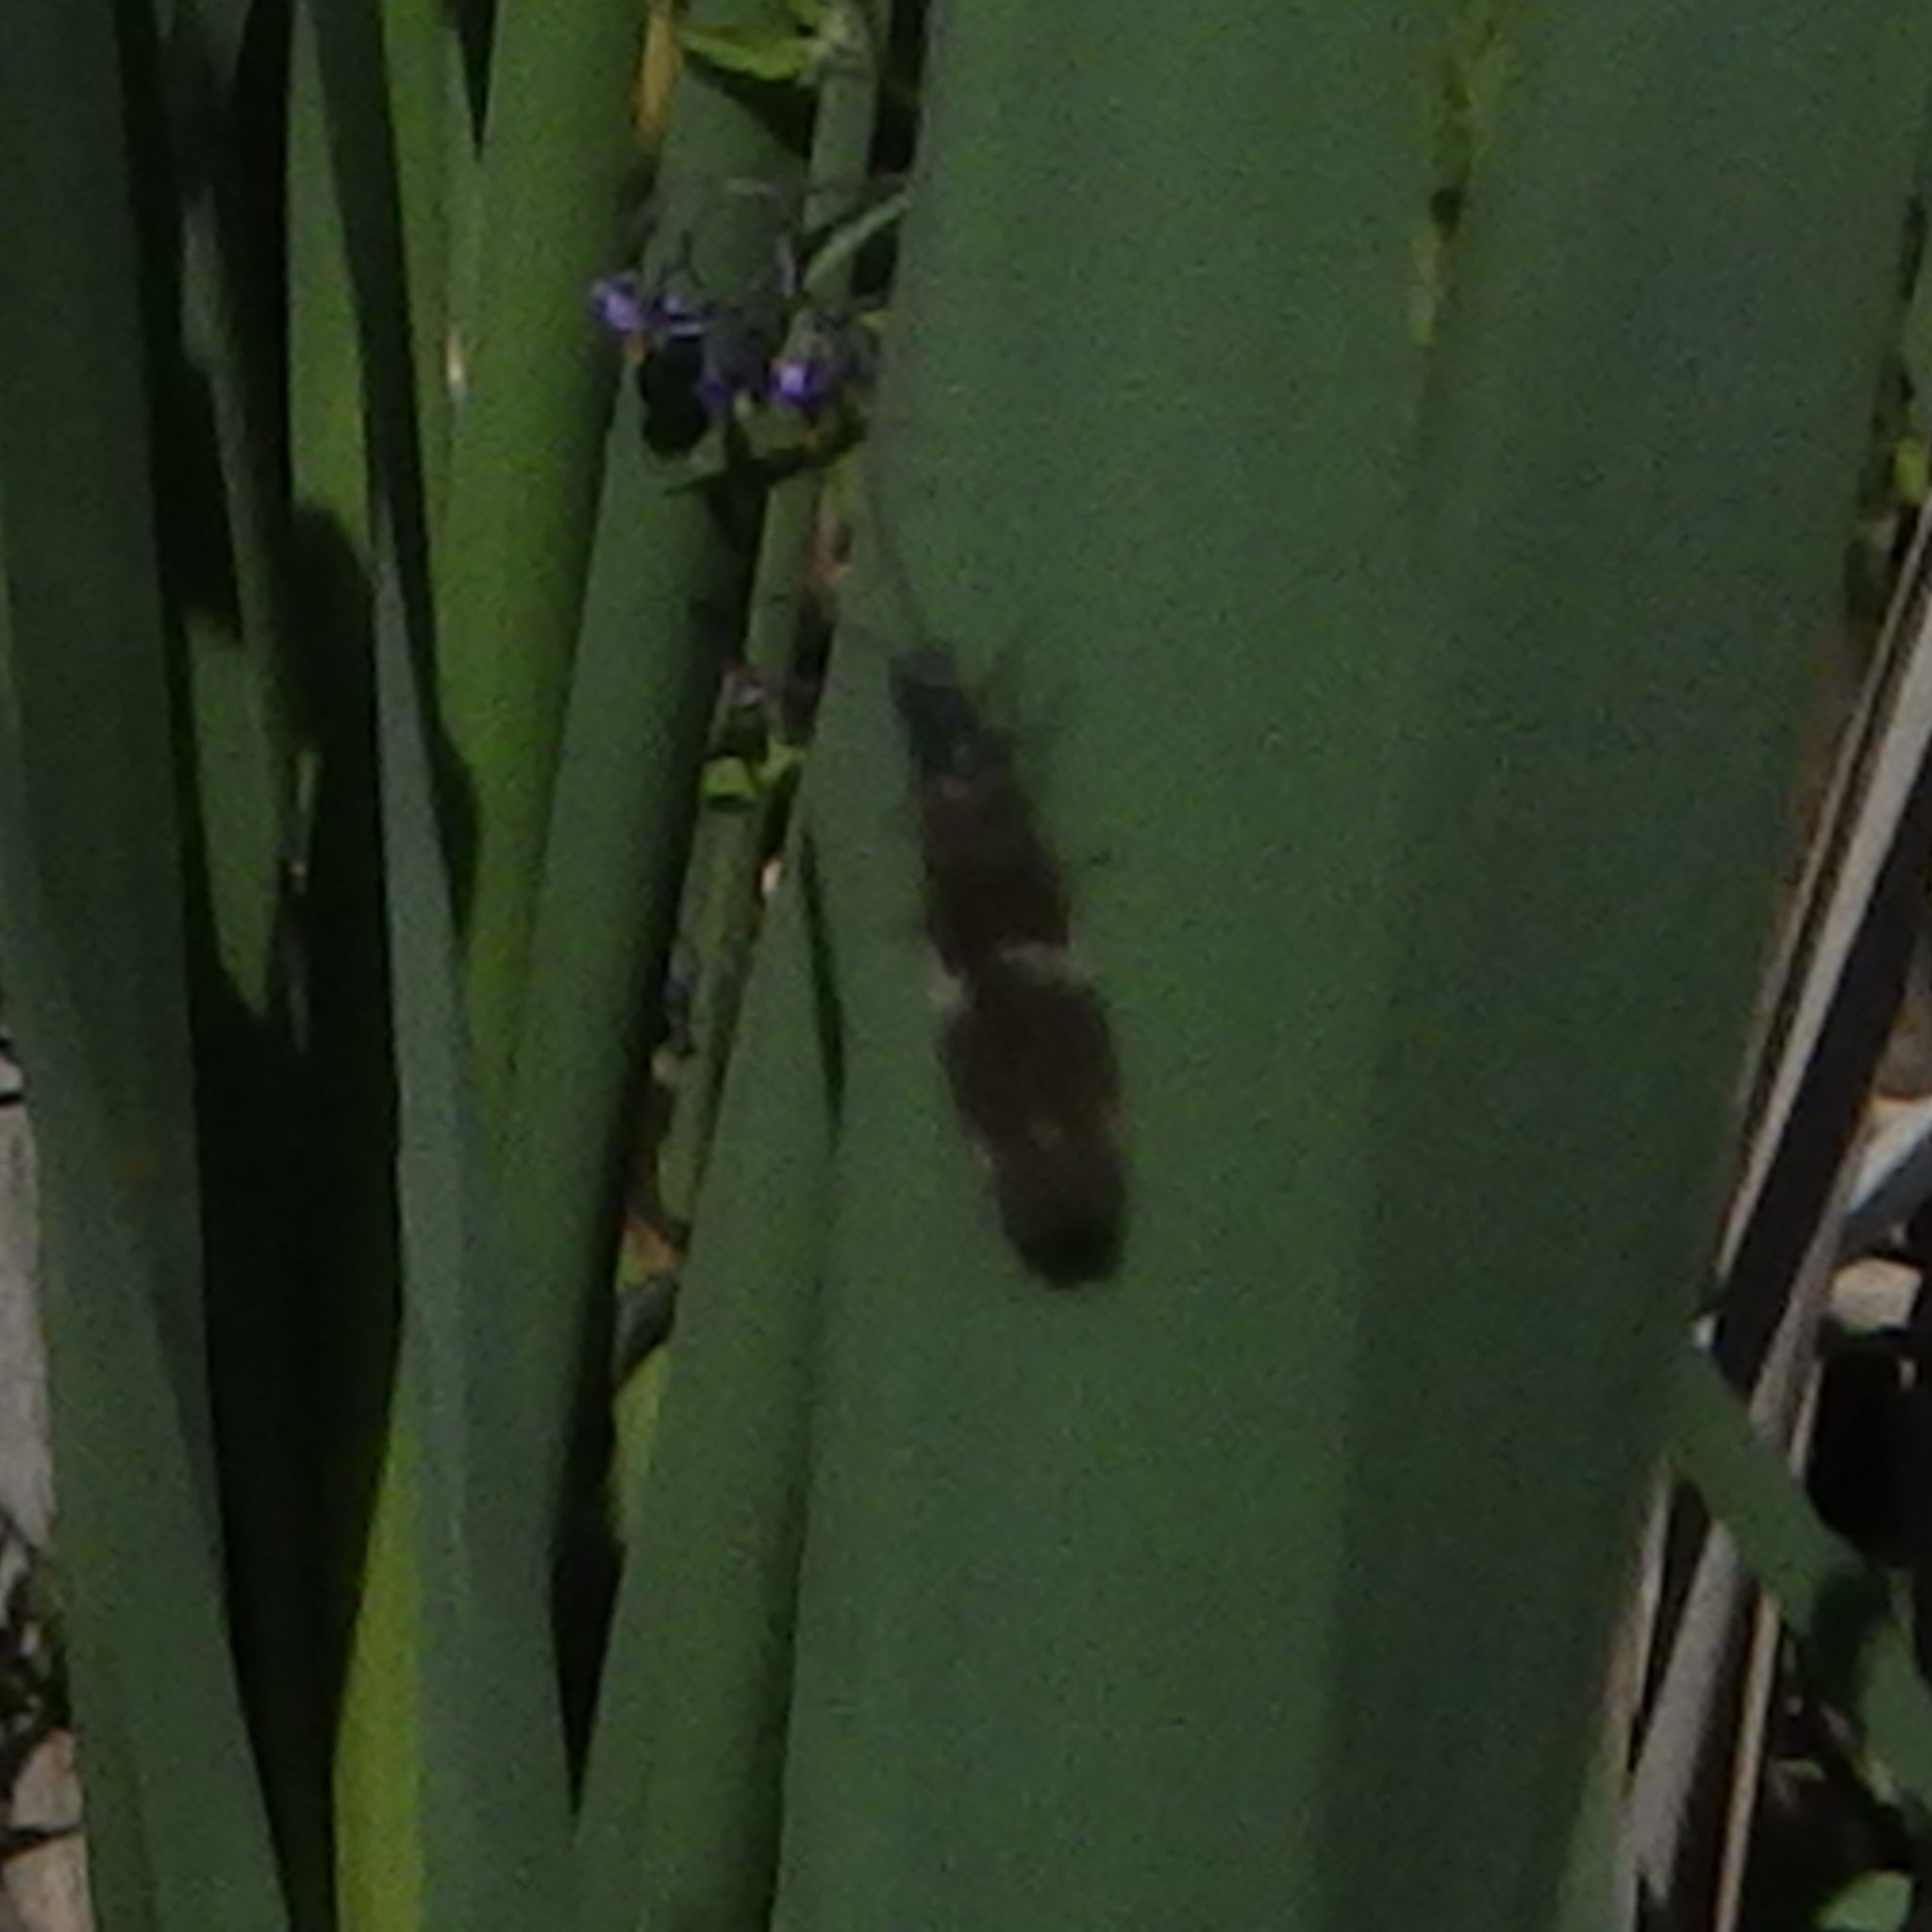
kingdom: Animalia
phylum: Arthropoda
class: Insecta
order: Megaloptera
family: Corydalidae
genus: Nigronia
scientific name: Nigronia serricornis
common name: Serrate dark fishfly
